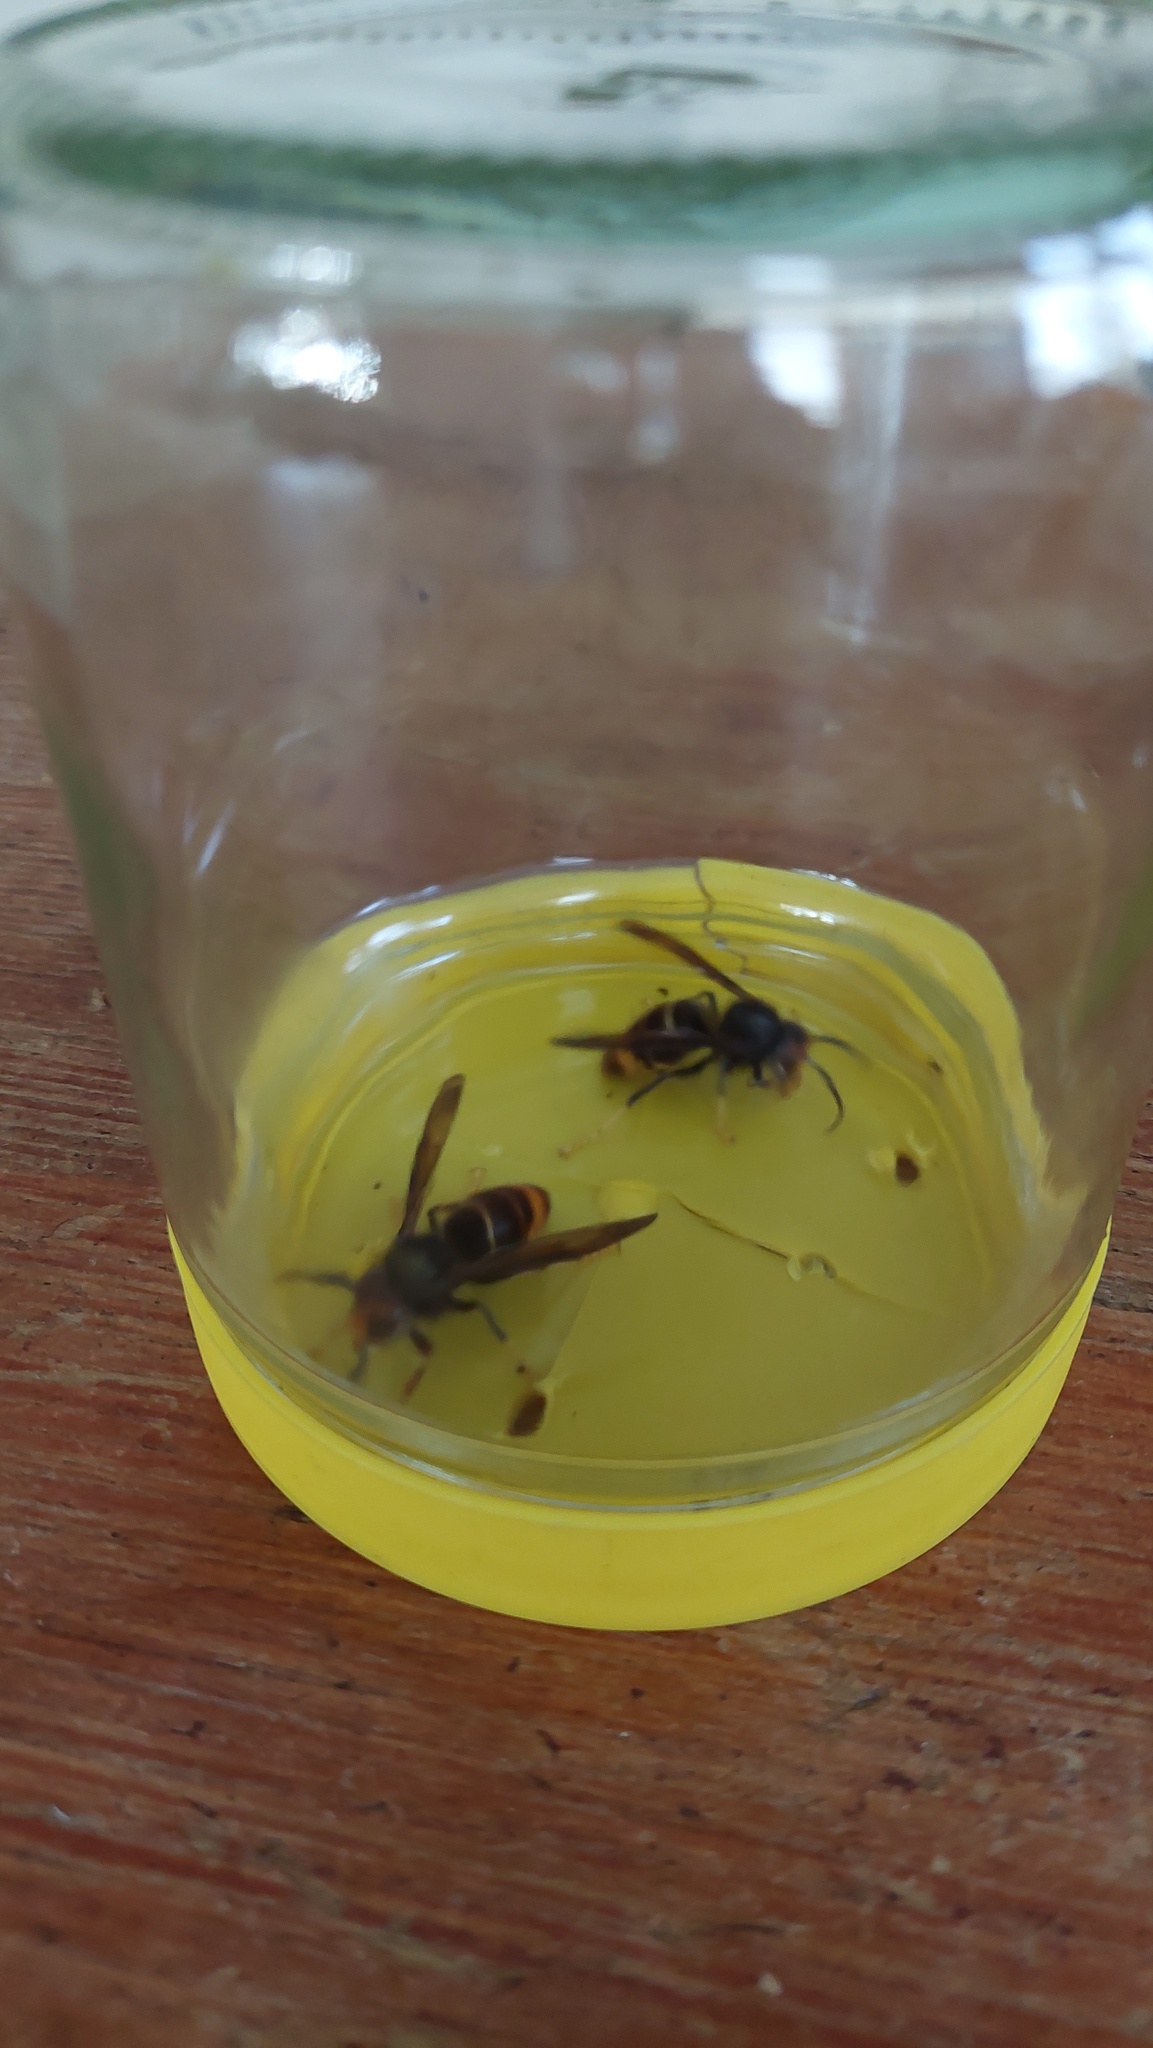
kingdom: Animalia
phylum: Arthropoda
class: Insecta
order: Hymenoptera
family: Vespidae
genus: Vespa
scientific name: Vespa velutina
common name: Asian hornet
